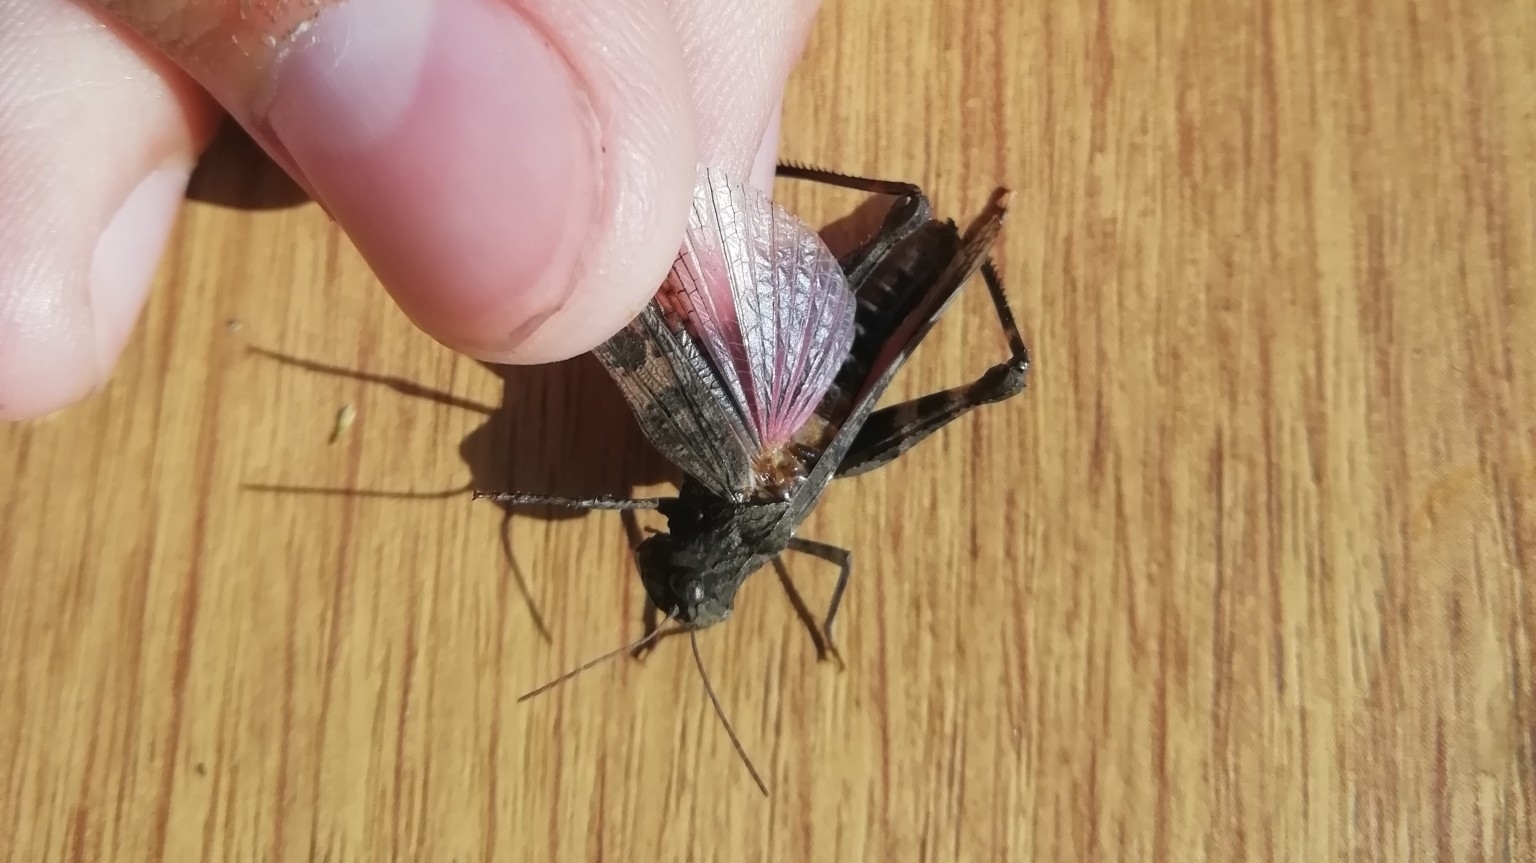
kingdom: Animalia
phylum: Arthropoda
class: Insecta
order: Orthoptera
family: Acrididae
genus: Celes
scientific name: Celes variabilis
